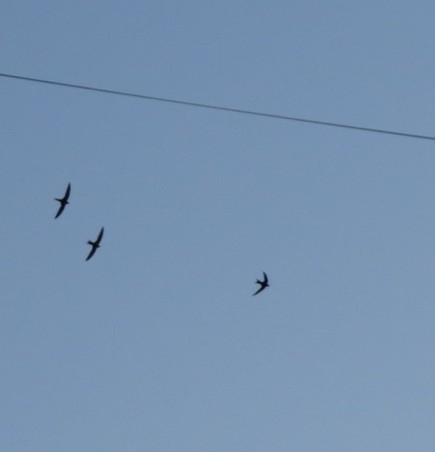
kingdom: Animalia
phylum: Chordata
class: Aves
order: Apodiformes
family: Apodidae
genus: Apus
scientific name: Apus apus
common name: Common swift
